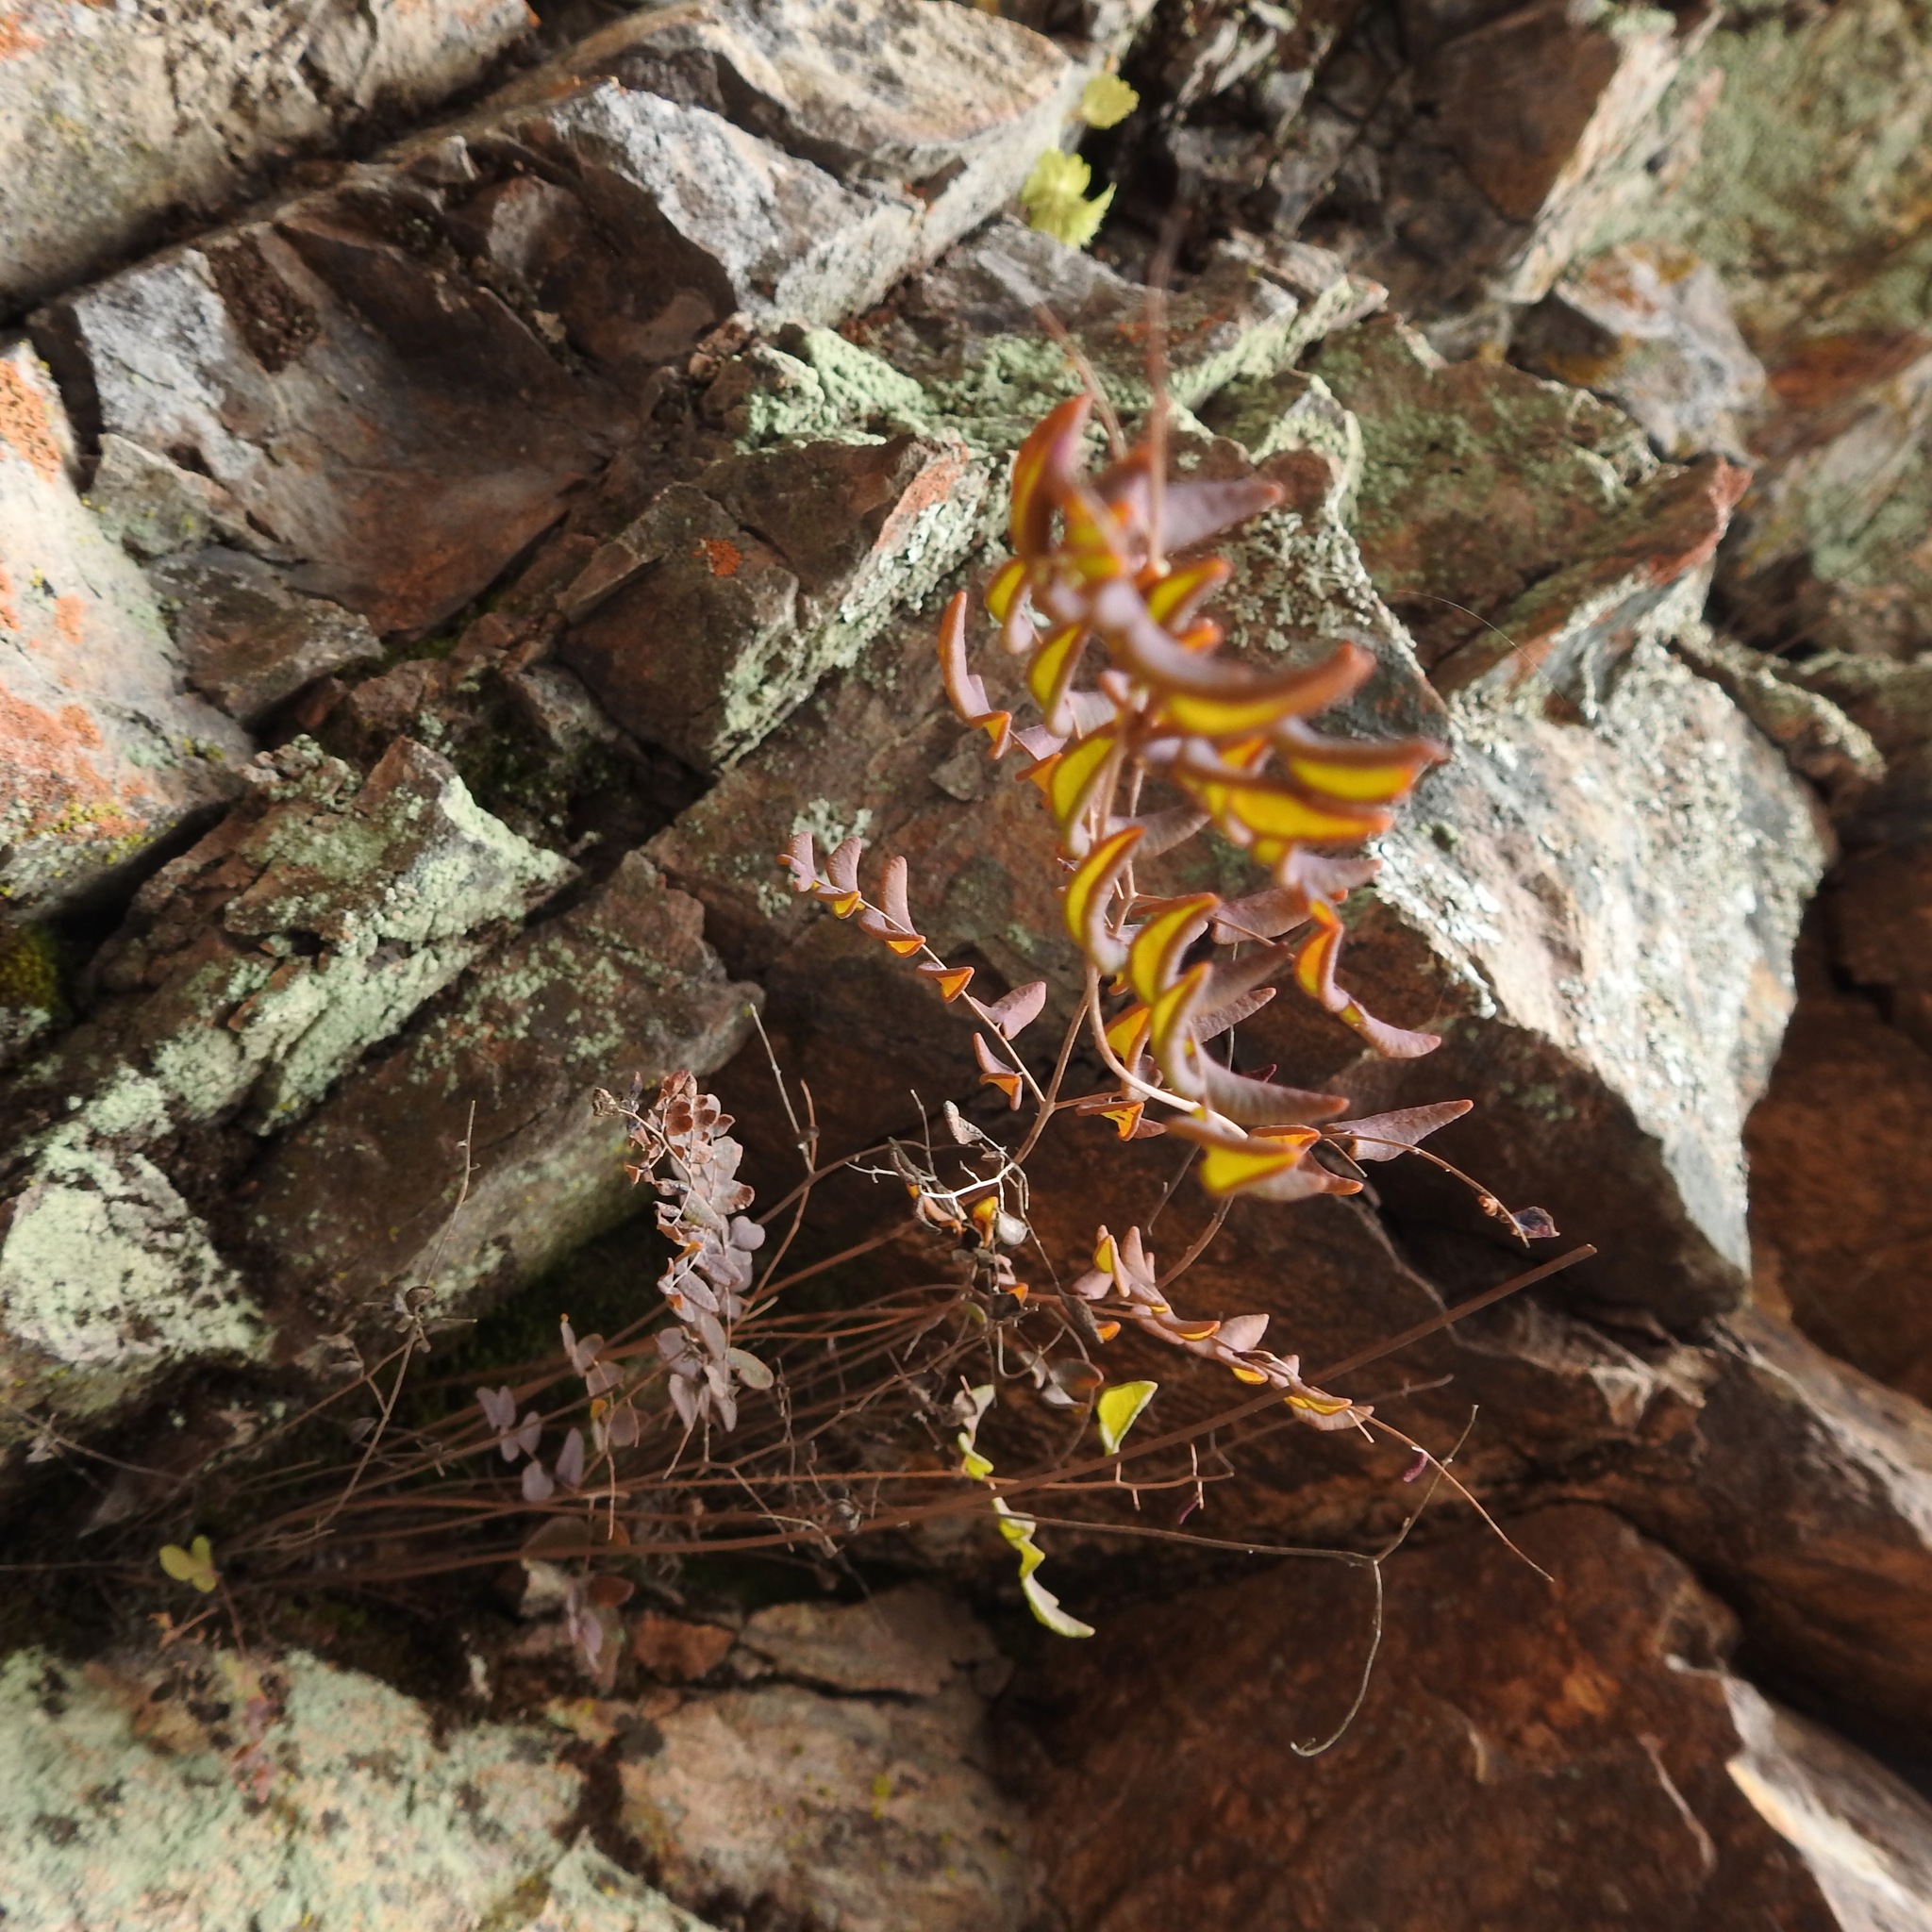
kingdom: Plantae
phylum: Tracheophyta
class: Polypodiopsida
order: Polypodiales
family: Pteridaceae
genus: Pellaea
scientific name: Pellaea andromedifolia
